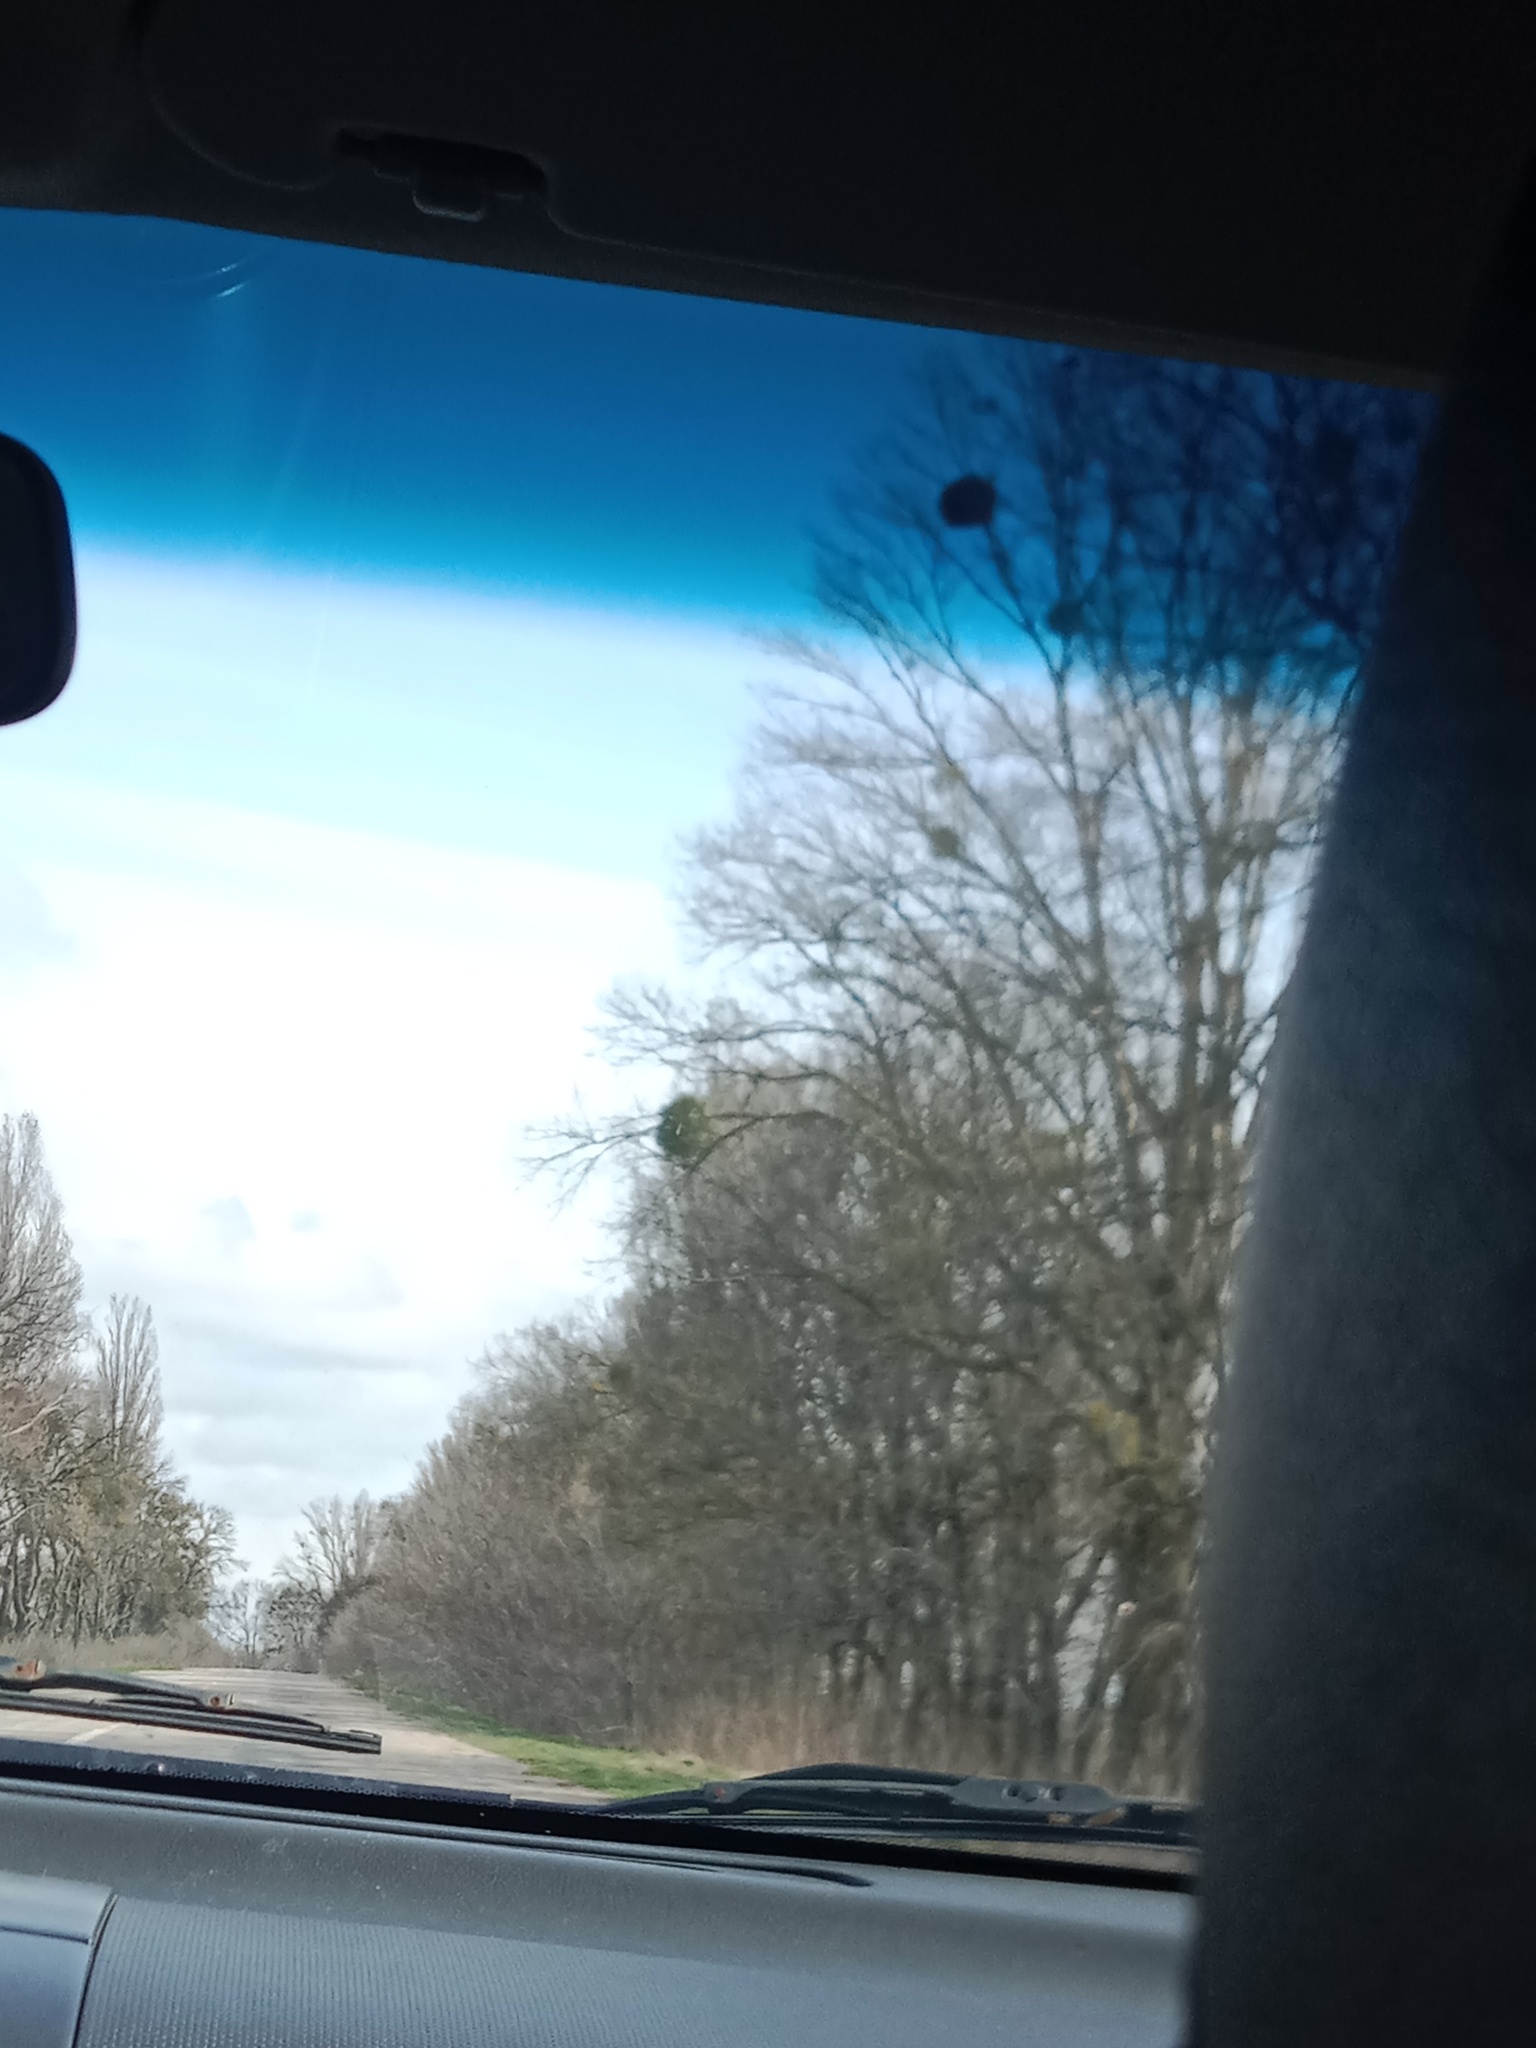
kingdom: Plantae
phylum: Tracheophyta
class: Magnoliopsida
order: Santalales
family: Viscaceae
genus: Viscum
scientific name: Viscum album
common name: Mistletoe
